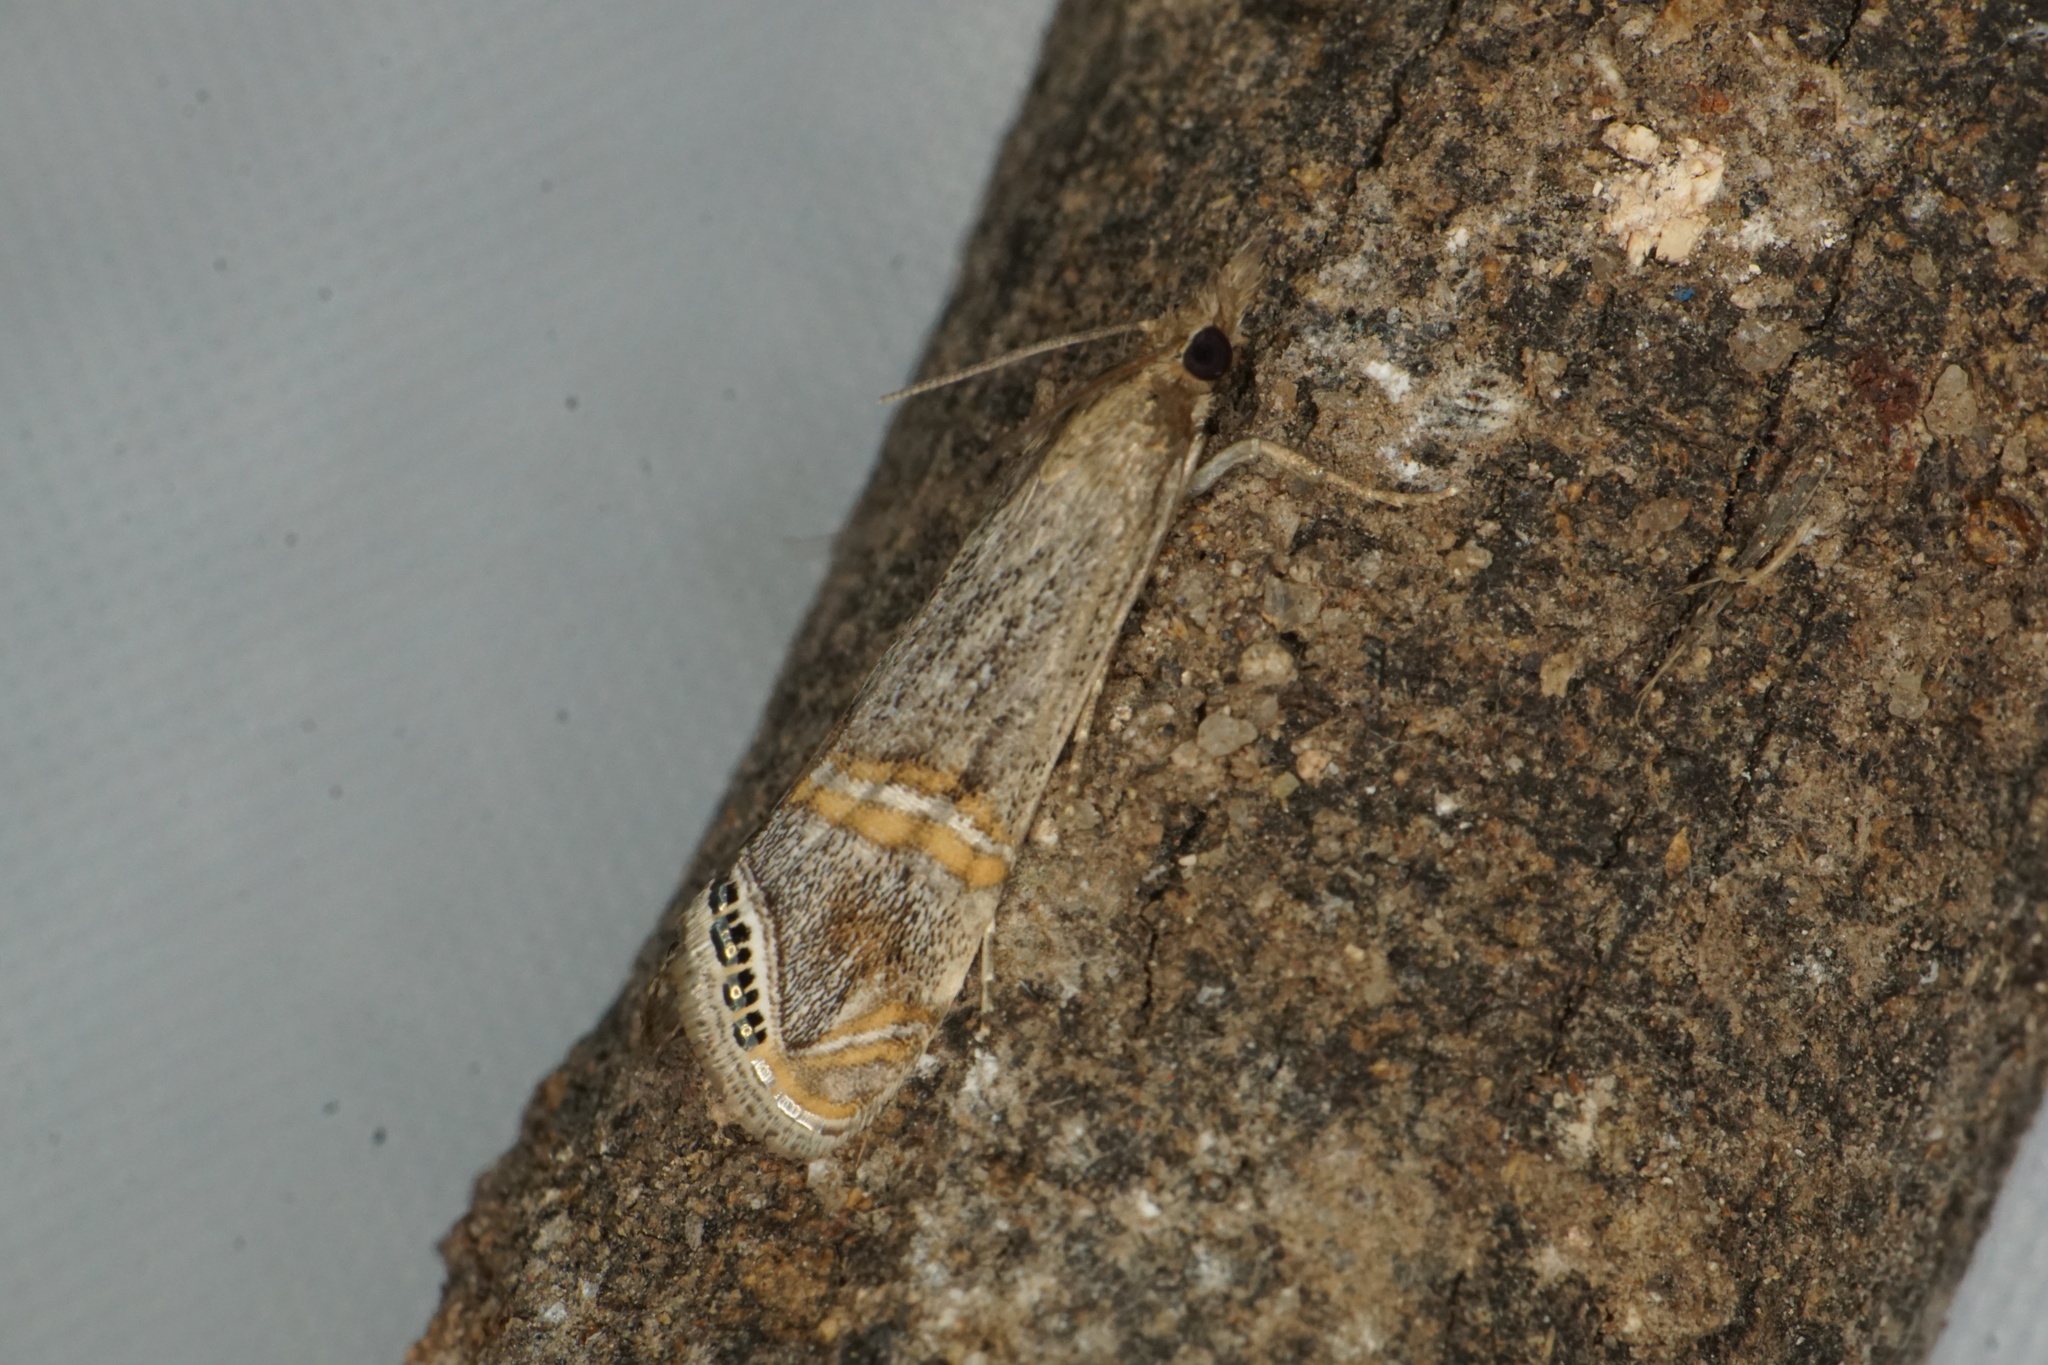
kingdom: Animalia
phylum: Arthropoda
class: Insecta
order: Lepidoptera
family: Crambidae
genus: Euchromius
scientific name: Euchromius ocellea
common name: Necklace veneer moth
